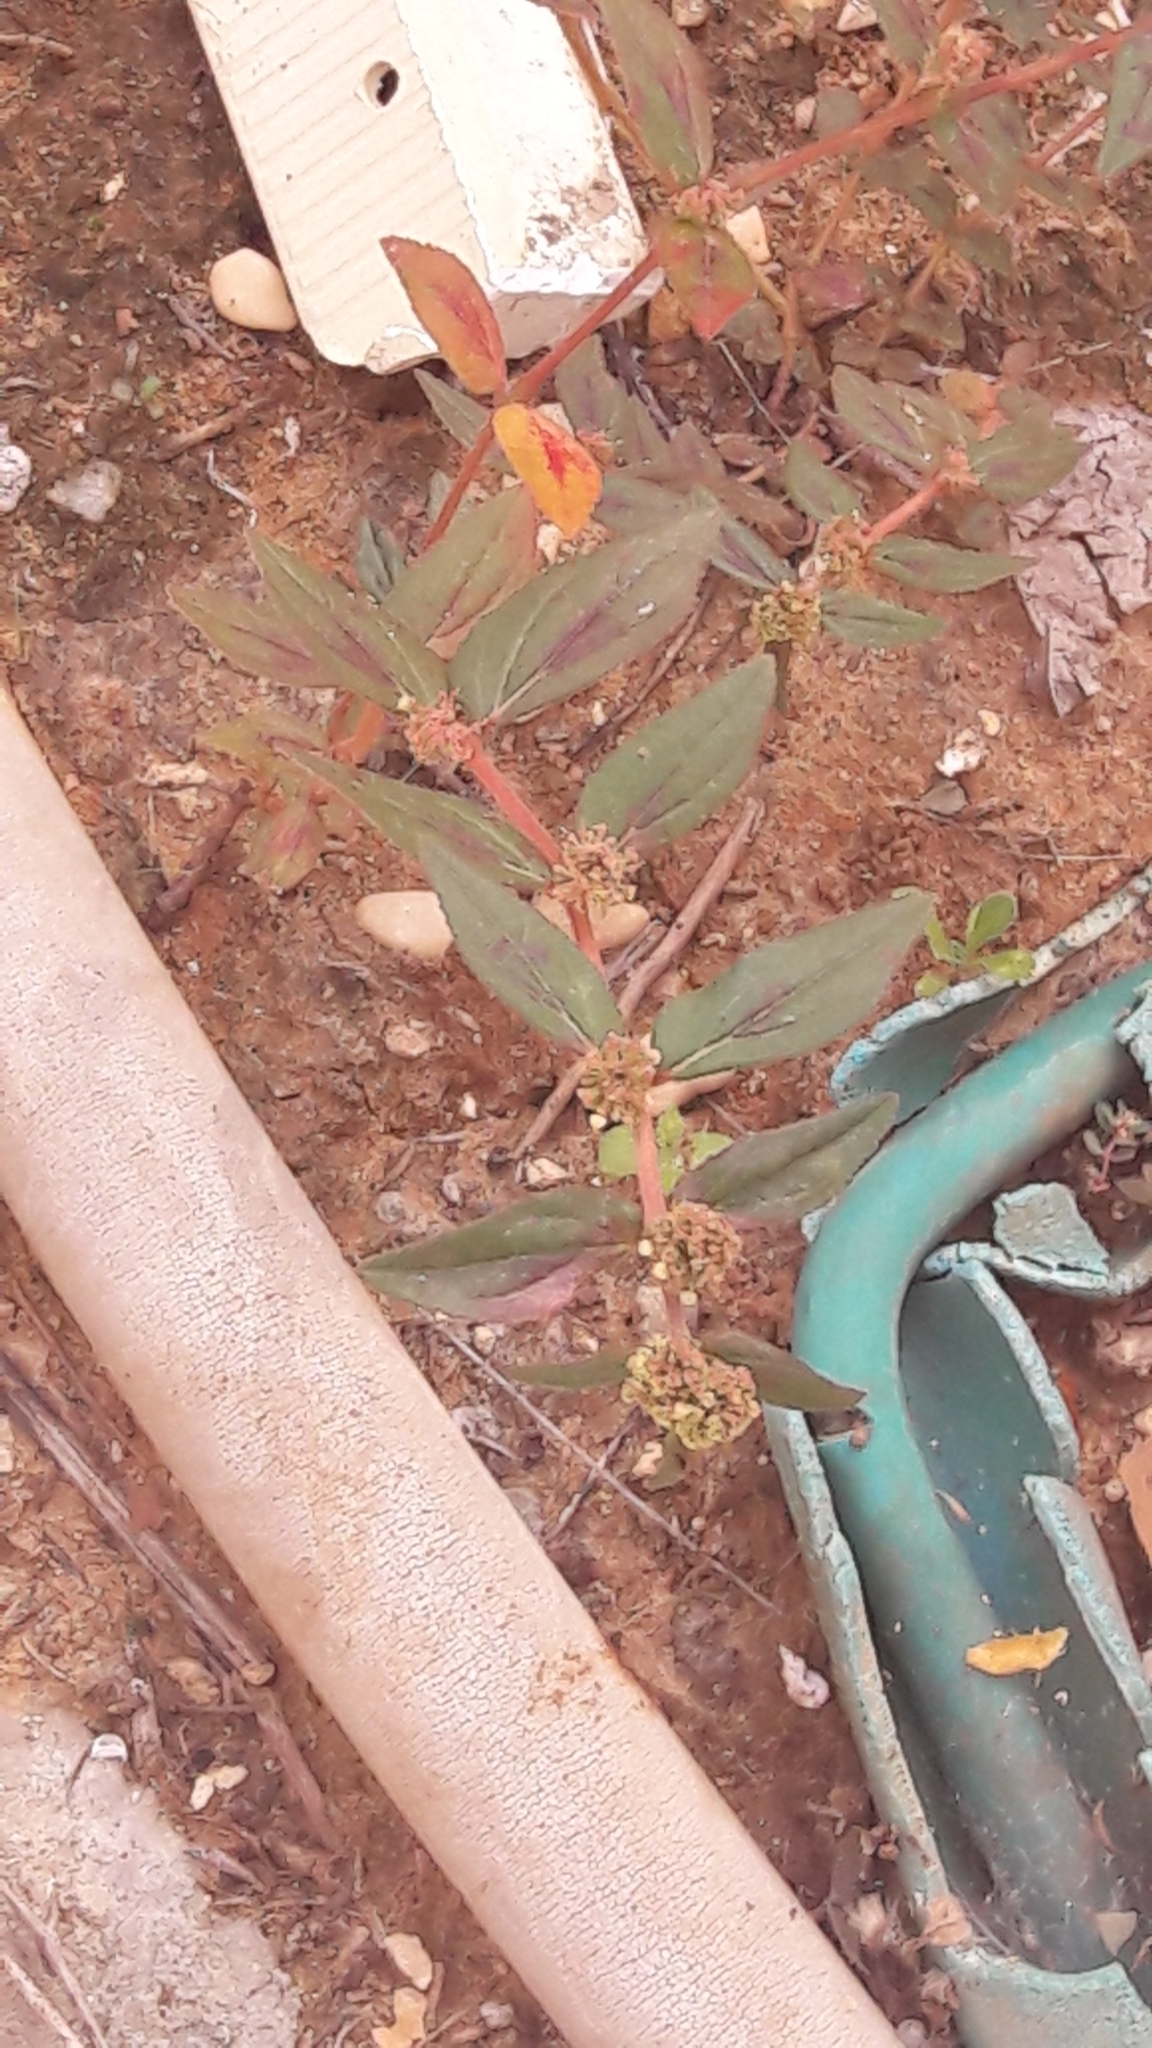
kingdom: Plantae
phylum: Tracheophyta
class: Magnoliopsida
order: Malpighiales
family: Euphorbiaceae
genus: Euphorbia
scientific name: Euphorbia hirta
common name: Pillpod sandmat
